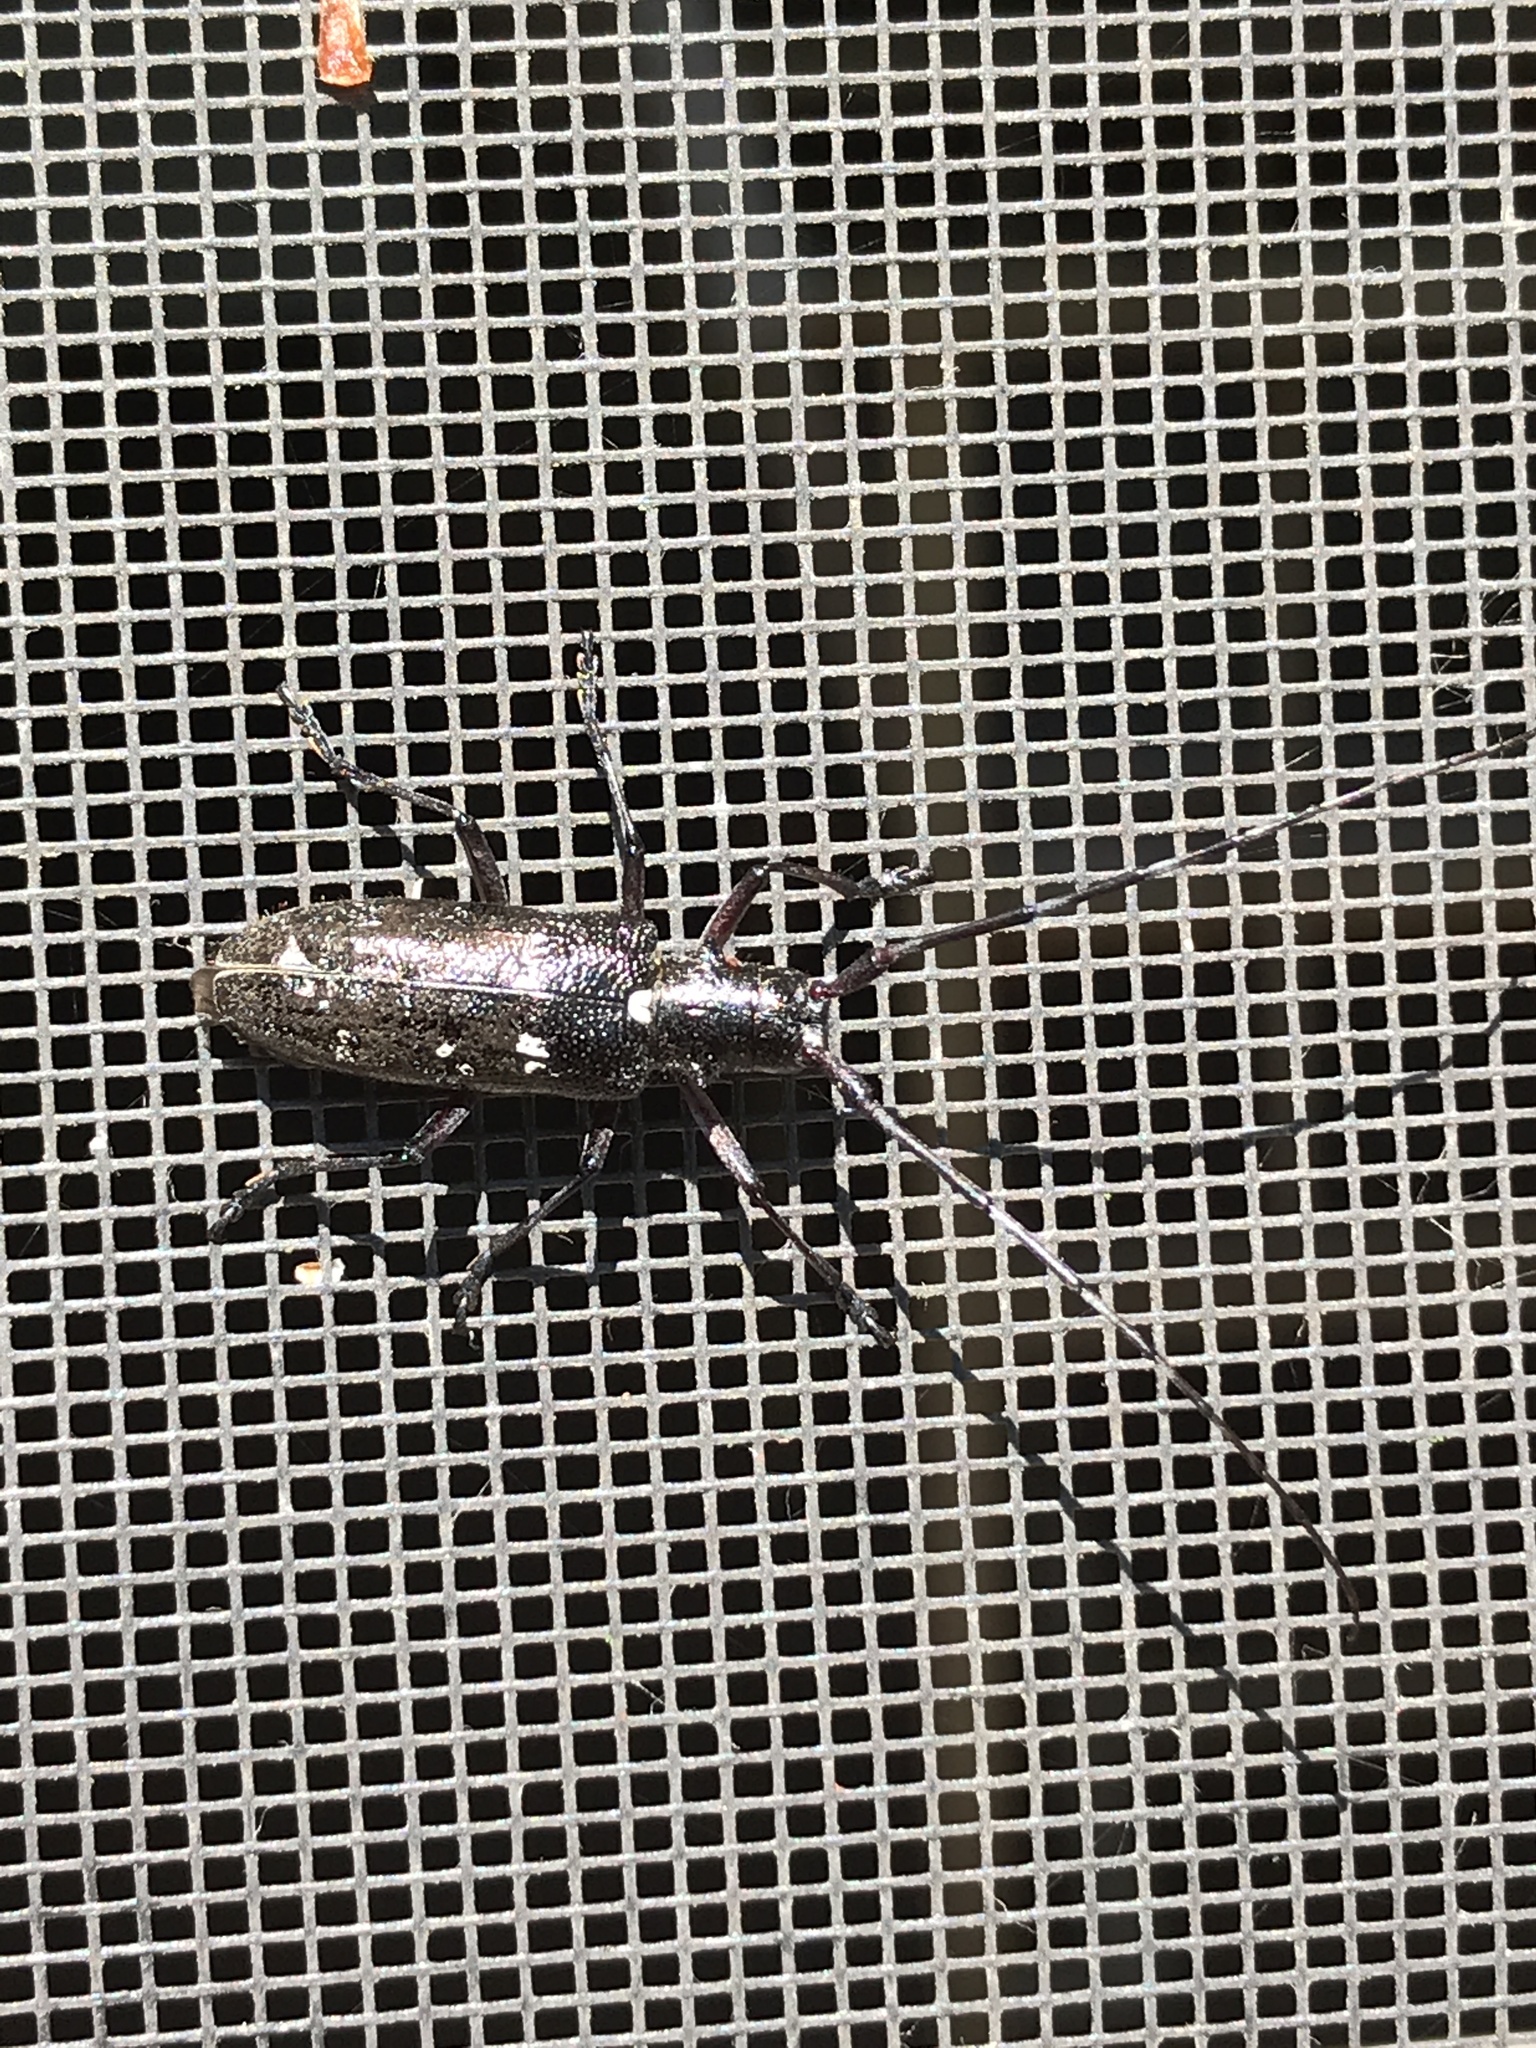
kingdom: Animalia
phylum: Arthropoda
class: Insecta
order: Coleoptera
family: Cerambycidae
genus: Monochamus
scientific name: Monochamus scutellatus
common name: White-spotted sawyer beetle
